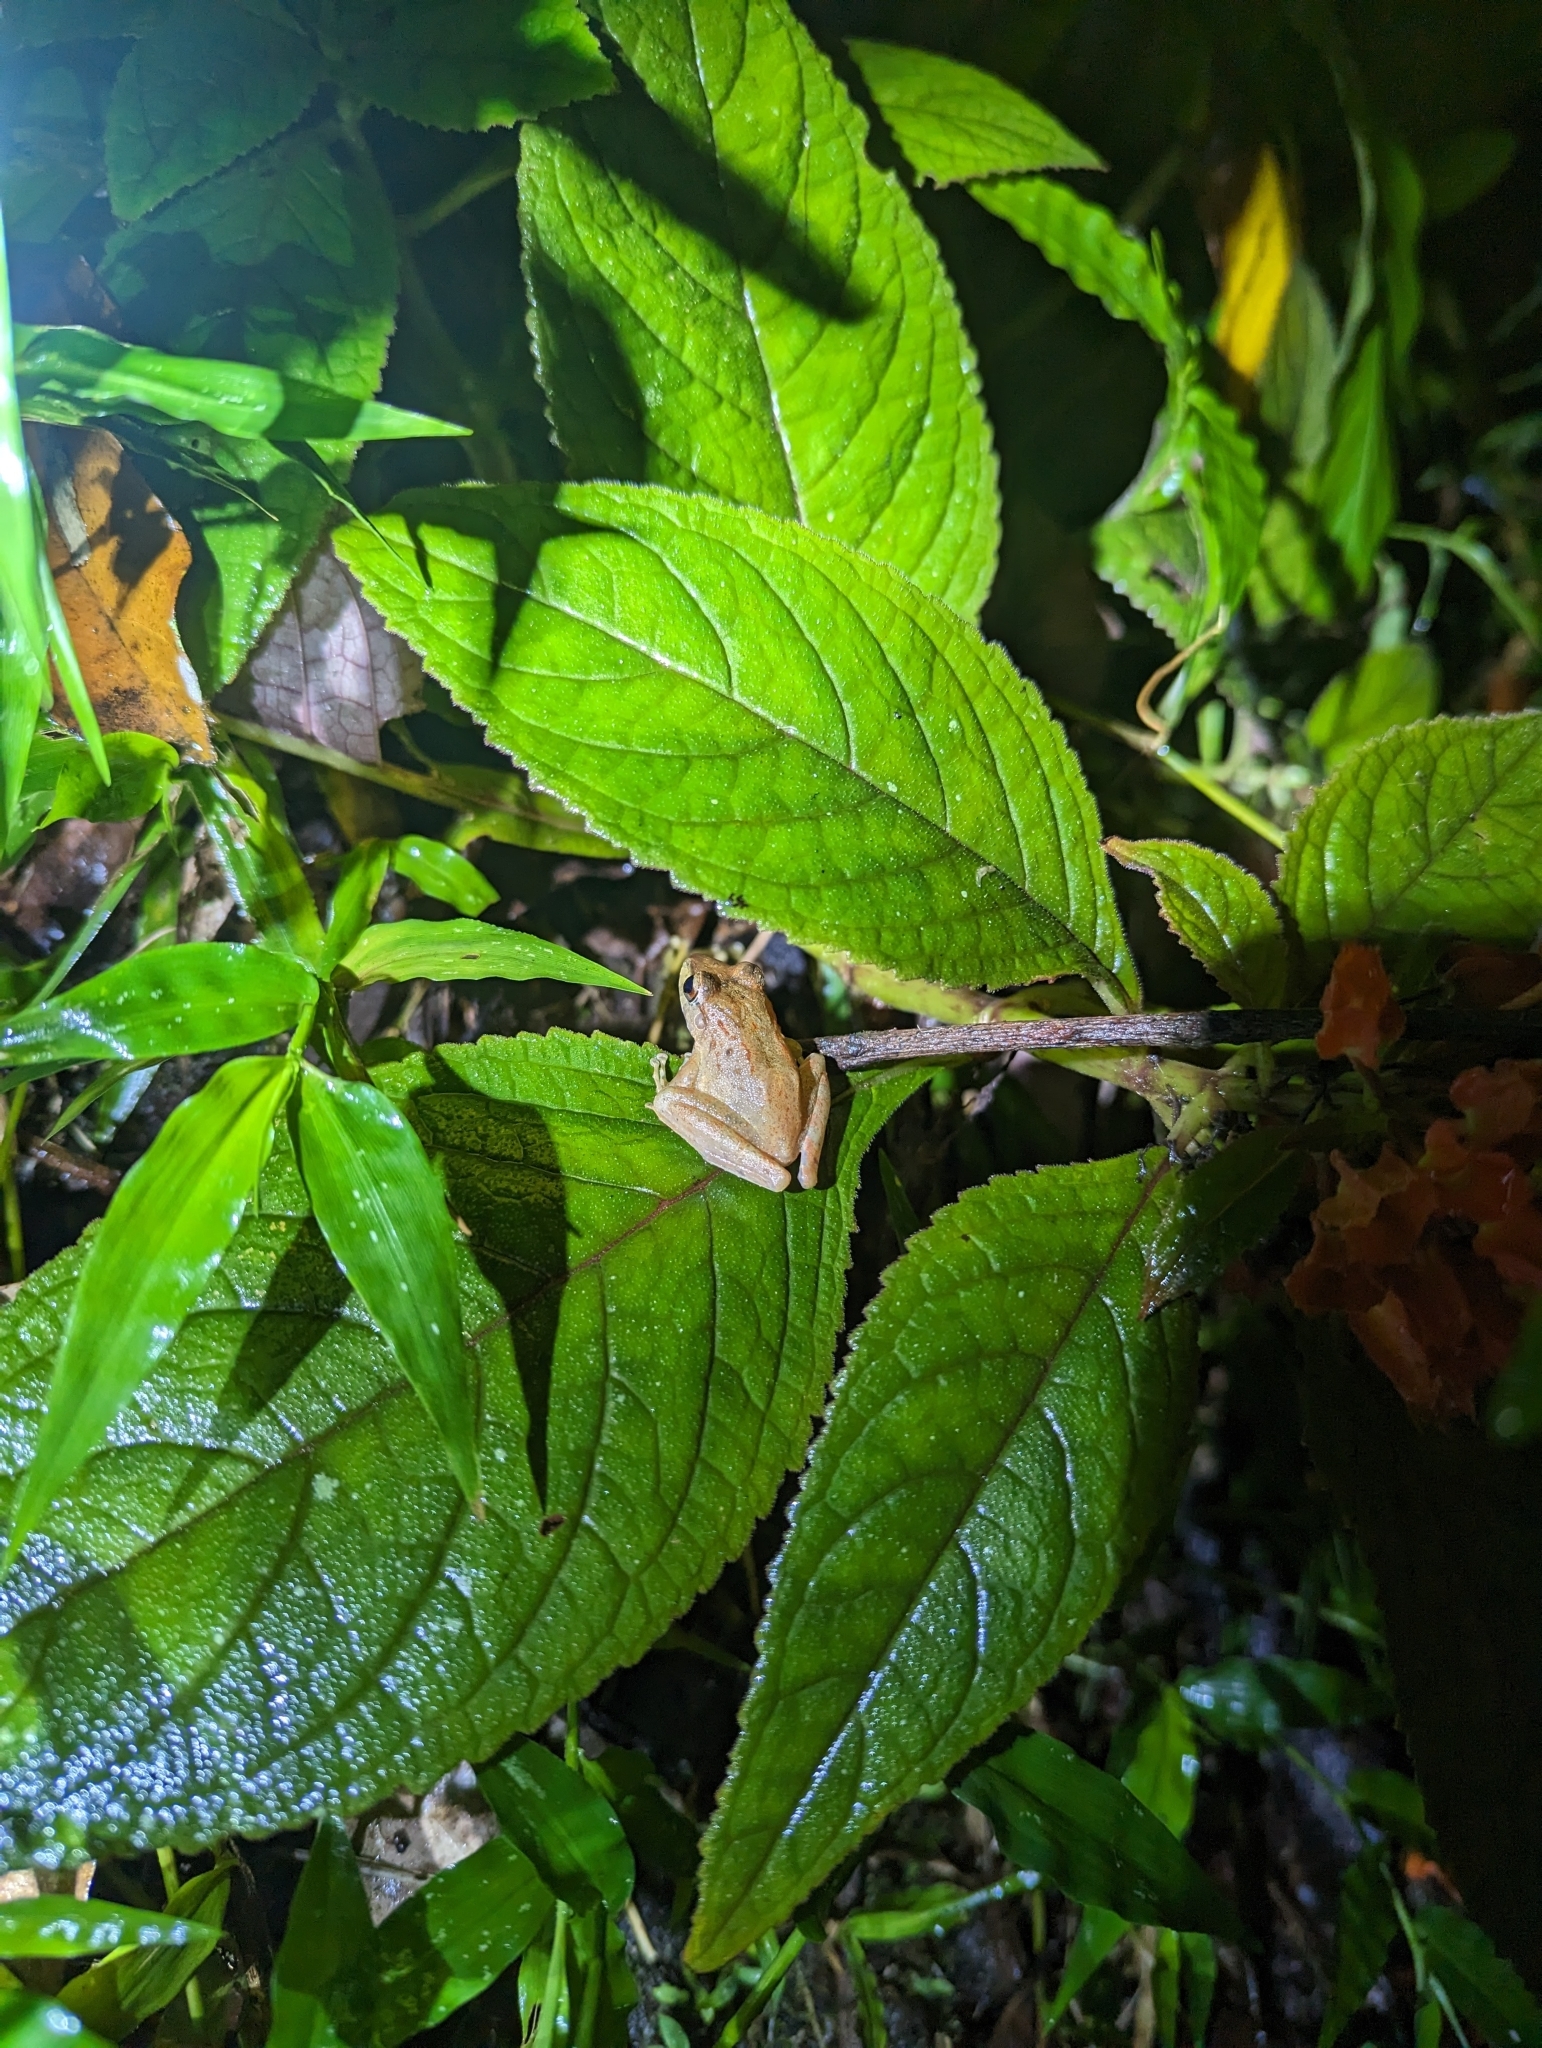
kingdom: Animalia
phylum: Chordata
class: Amphibia
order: Anura
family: Craugastoridae
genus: Craugastor
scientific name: Craugastor crassidigitus
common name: Isla bonita robber frog
